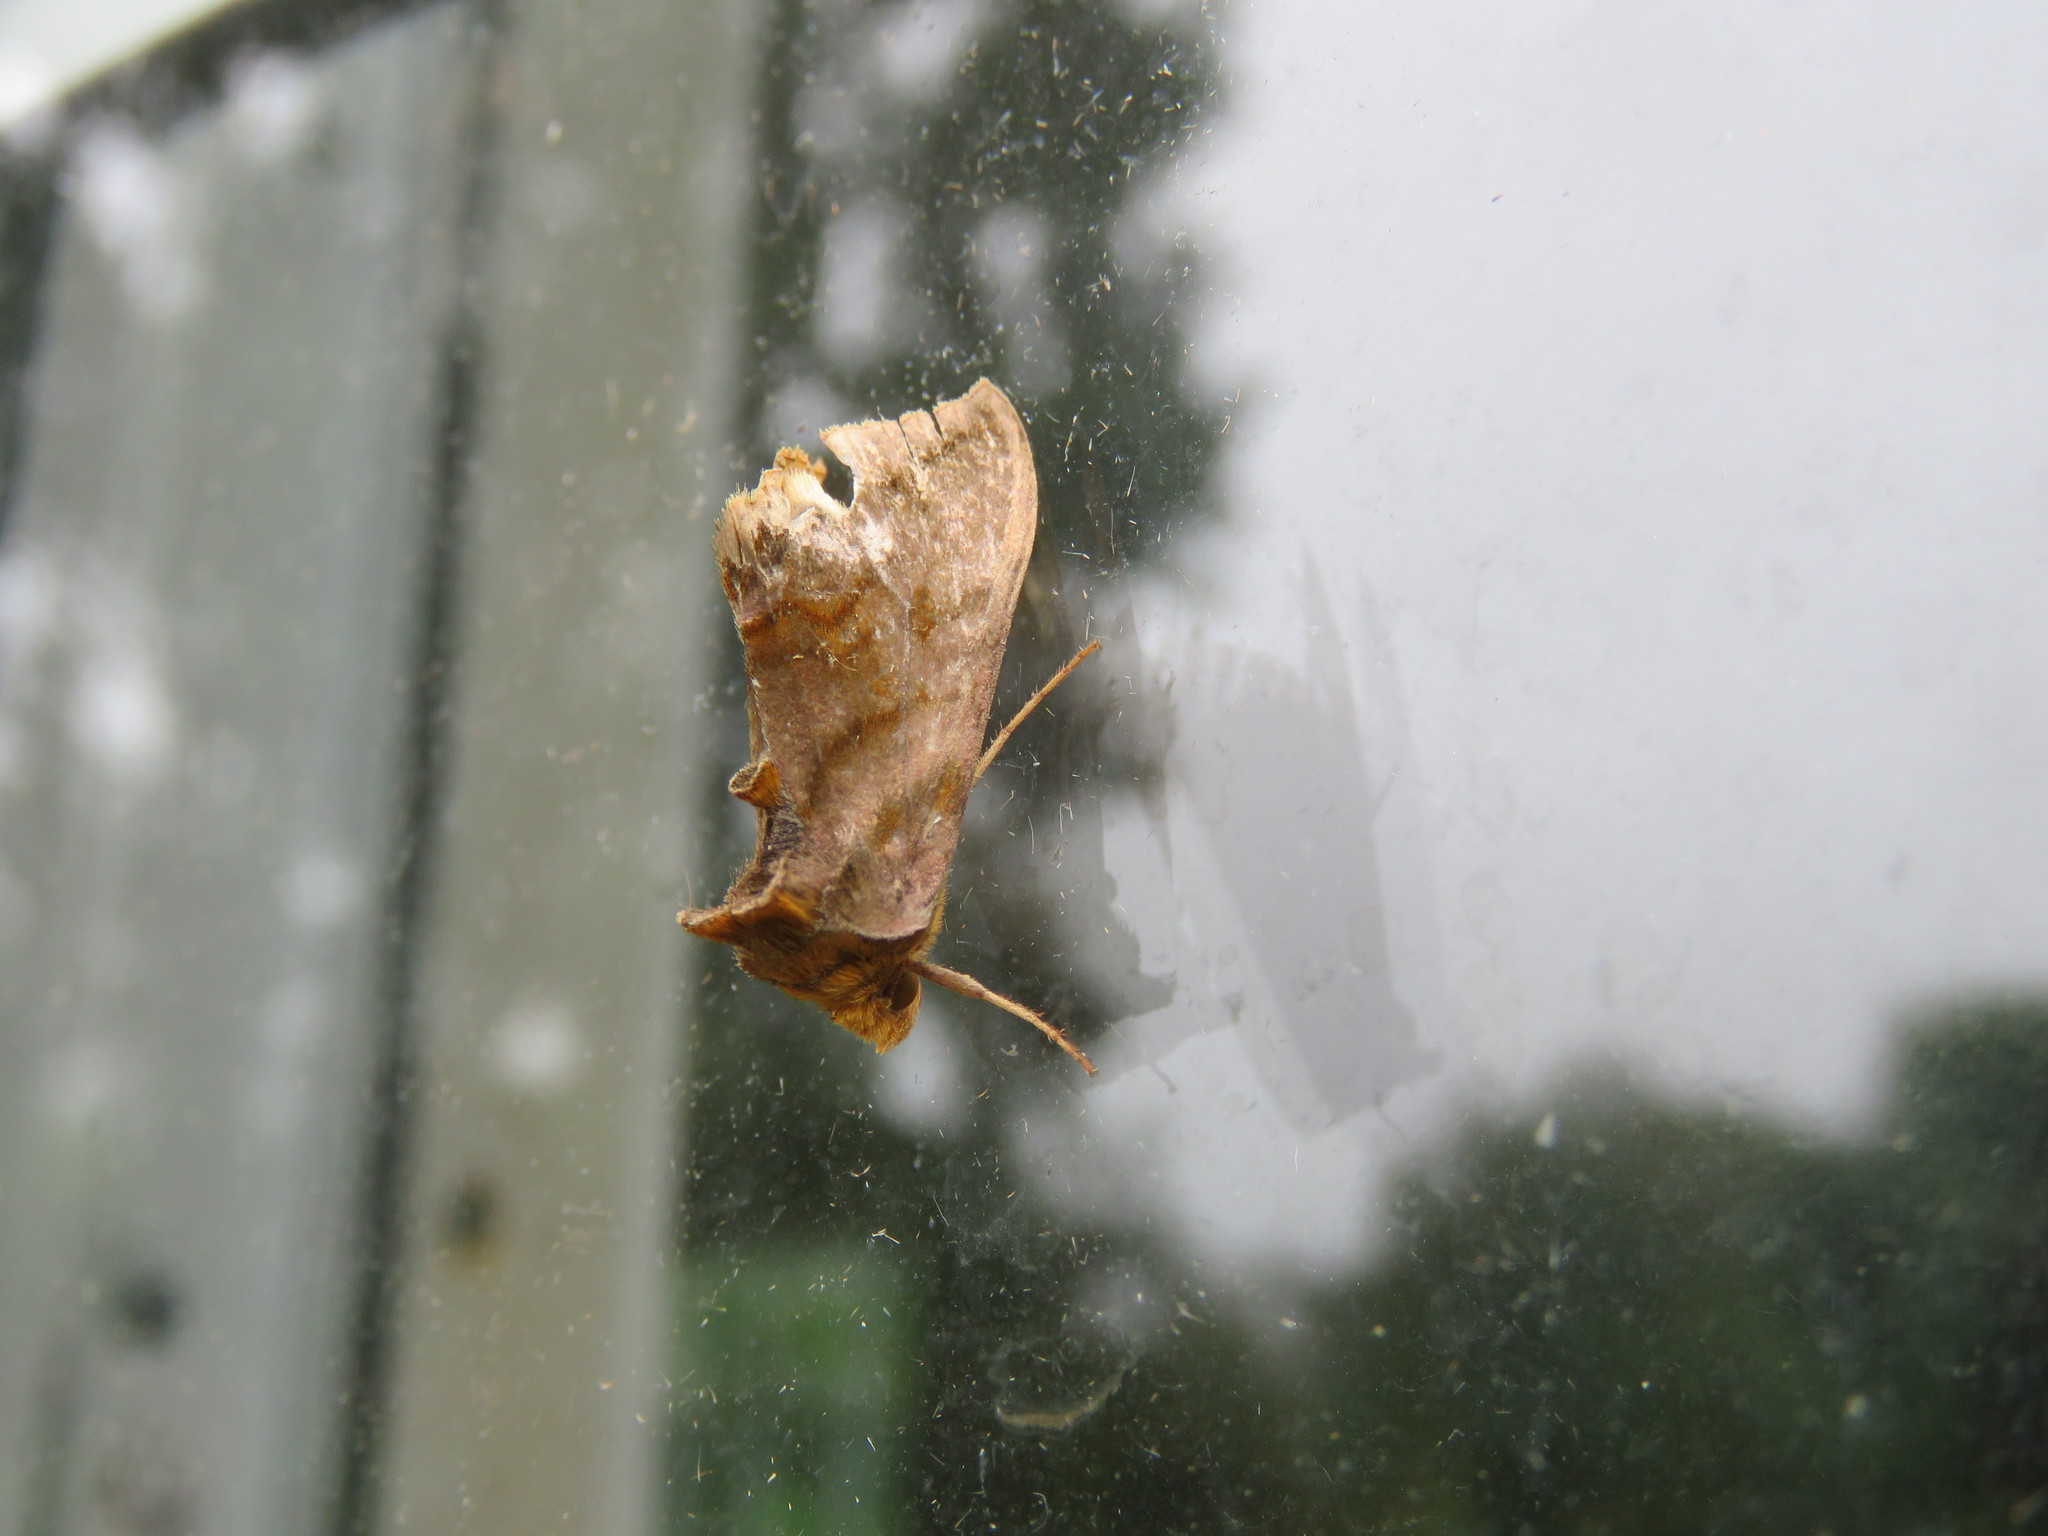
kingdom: Animalia
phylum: Arthropoda
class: Insecta
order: Lepidoptera
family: Noctuidae
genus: Allagrapha
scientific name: Allagrapha aerea
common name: Unspotted looper moth
